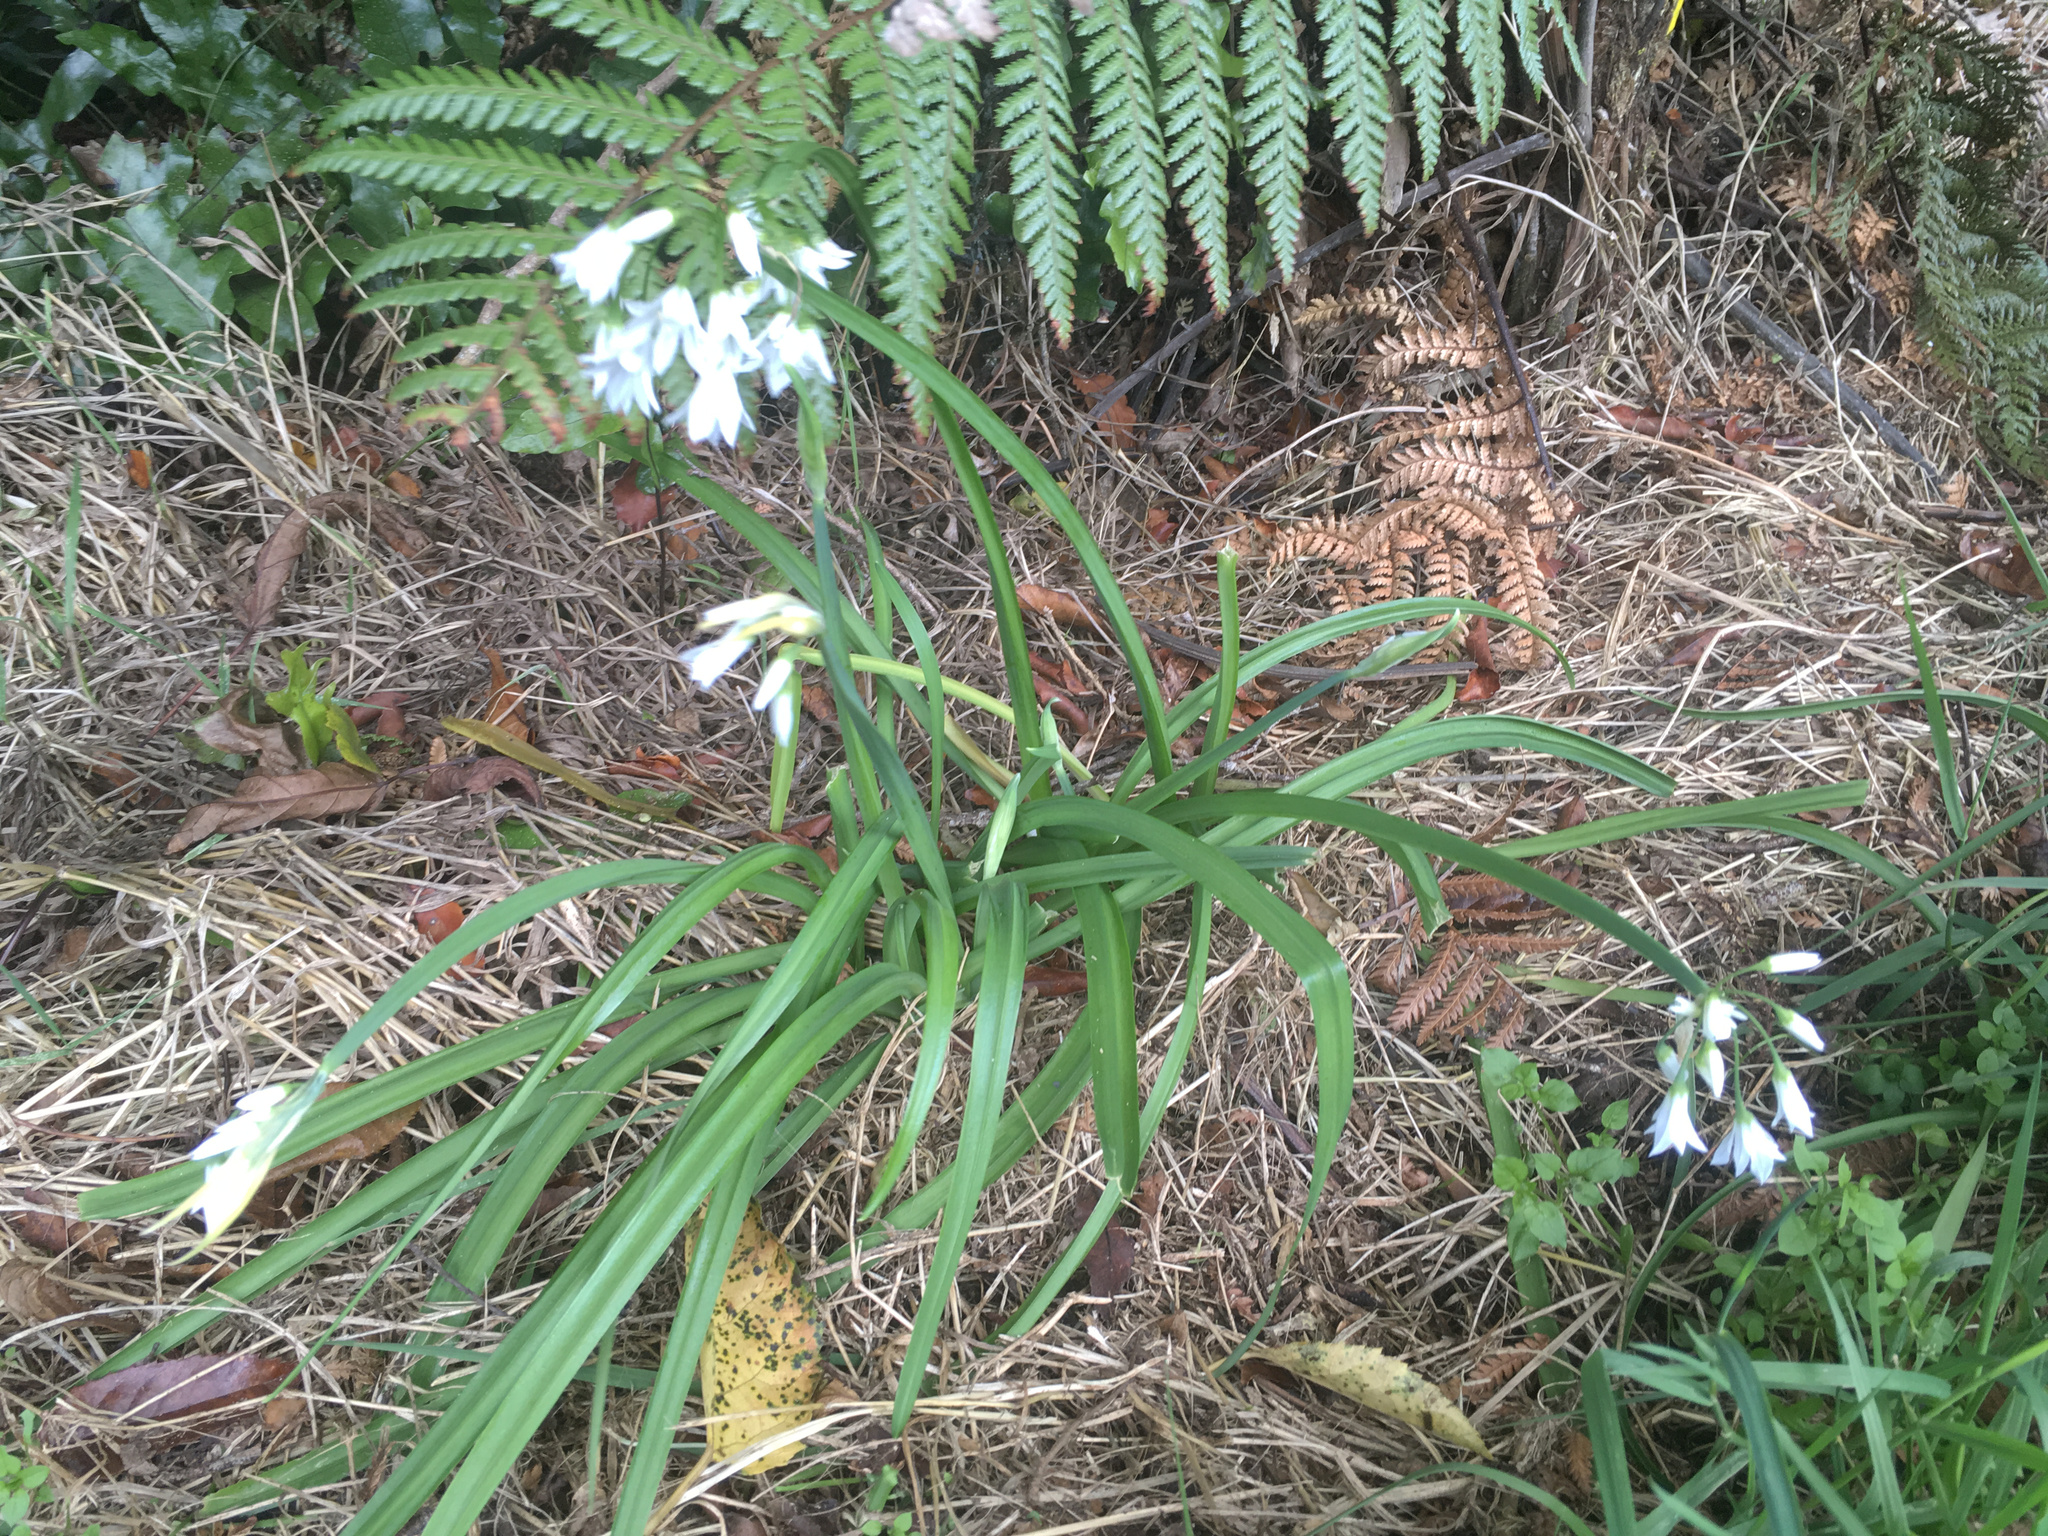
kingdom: Plantae
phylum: Tracheophyta
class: Liliopsida
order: Asparagales
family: Amaryllidaceae
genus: Allium
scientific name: Allium triquetrum
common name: Three-cornered garlic
